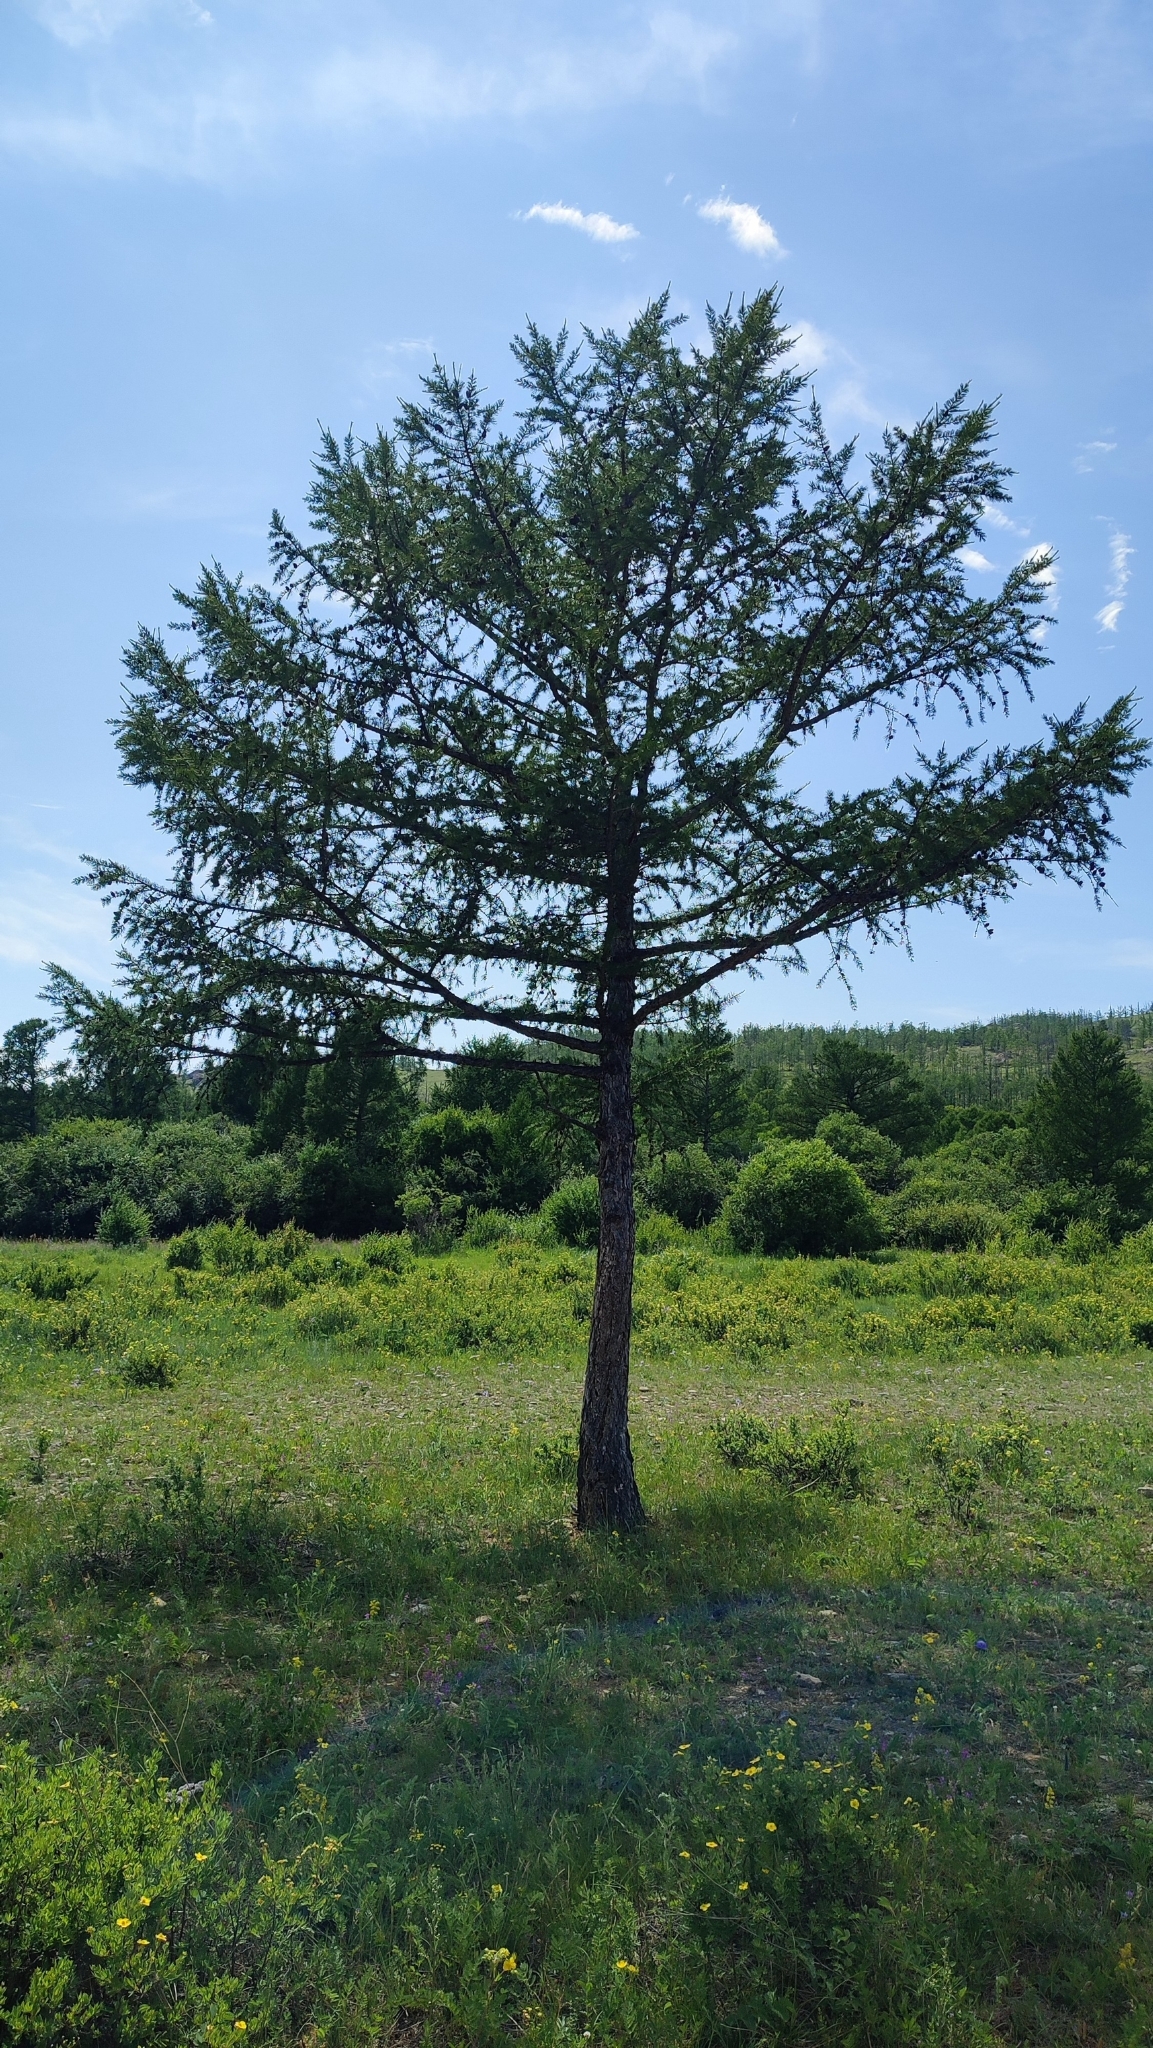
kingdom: Plantae
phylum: Tracheophyta
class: Pinopsida
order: Pinales
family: Pinaceae
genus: Larix
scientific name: Larix sibirica
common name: Siberian larch
